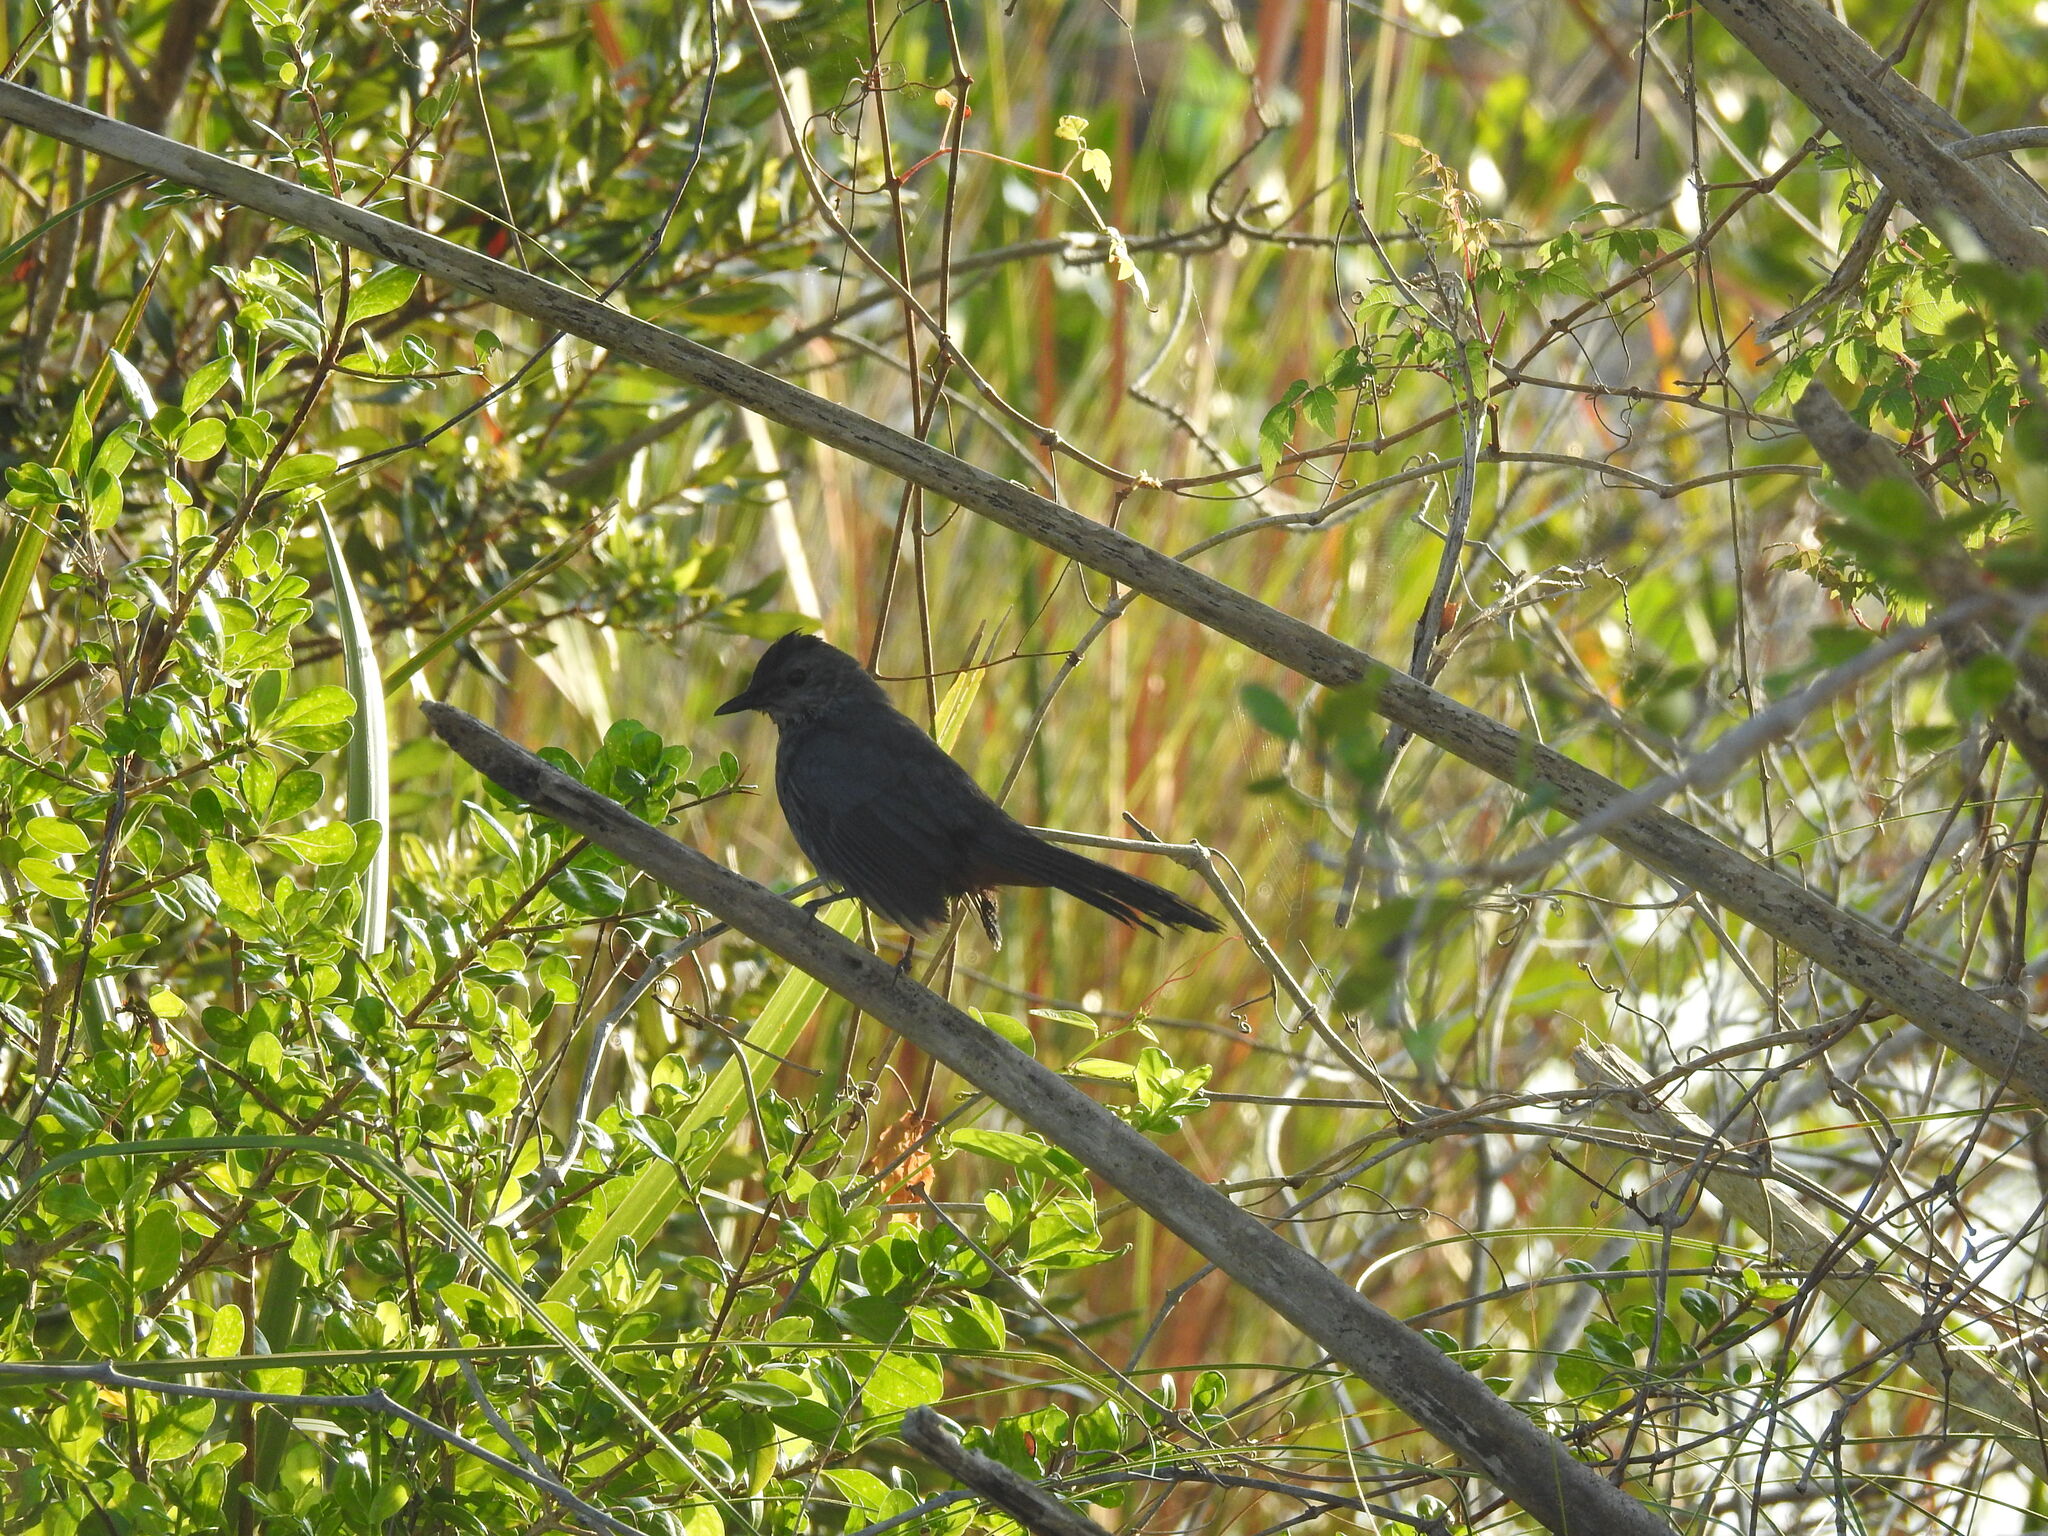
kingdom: Animalia
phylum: Chordata
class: Aves
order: Passeriformes
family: Mimidae
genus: Dumetella
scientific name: Dumetella carolinensis
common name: Gray catbird
